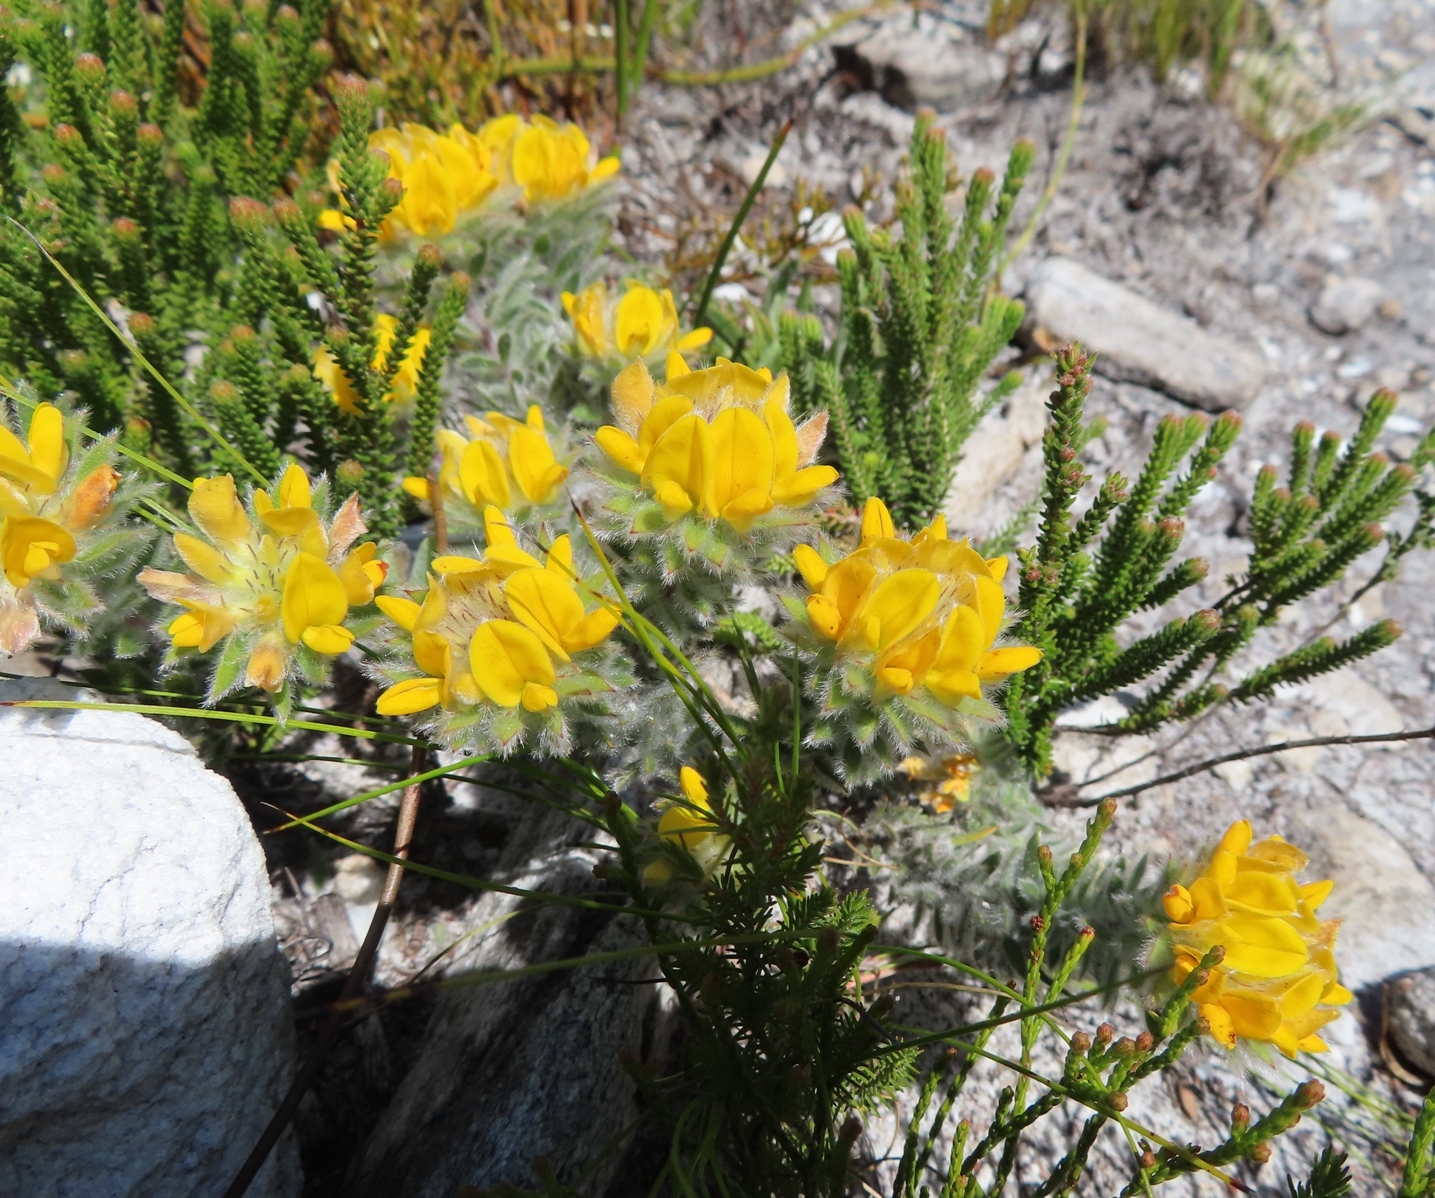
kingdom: Plantae
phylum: Tracheophyta
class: Magnoliopsida
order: Fabales
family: Fabaceae
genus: Aspalathus
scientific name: Aspalathus aspalathoides
